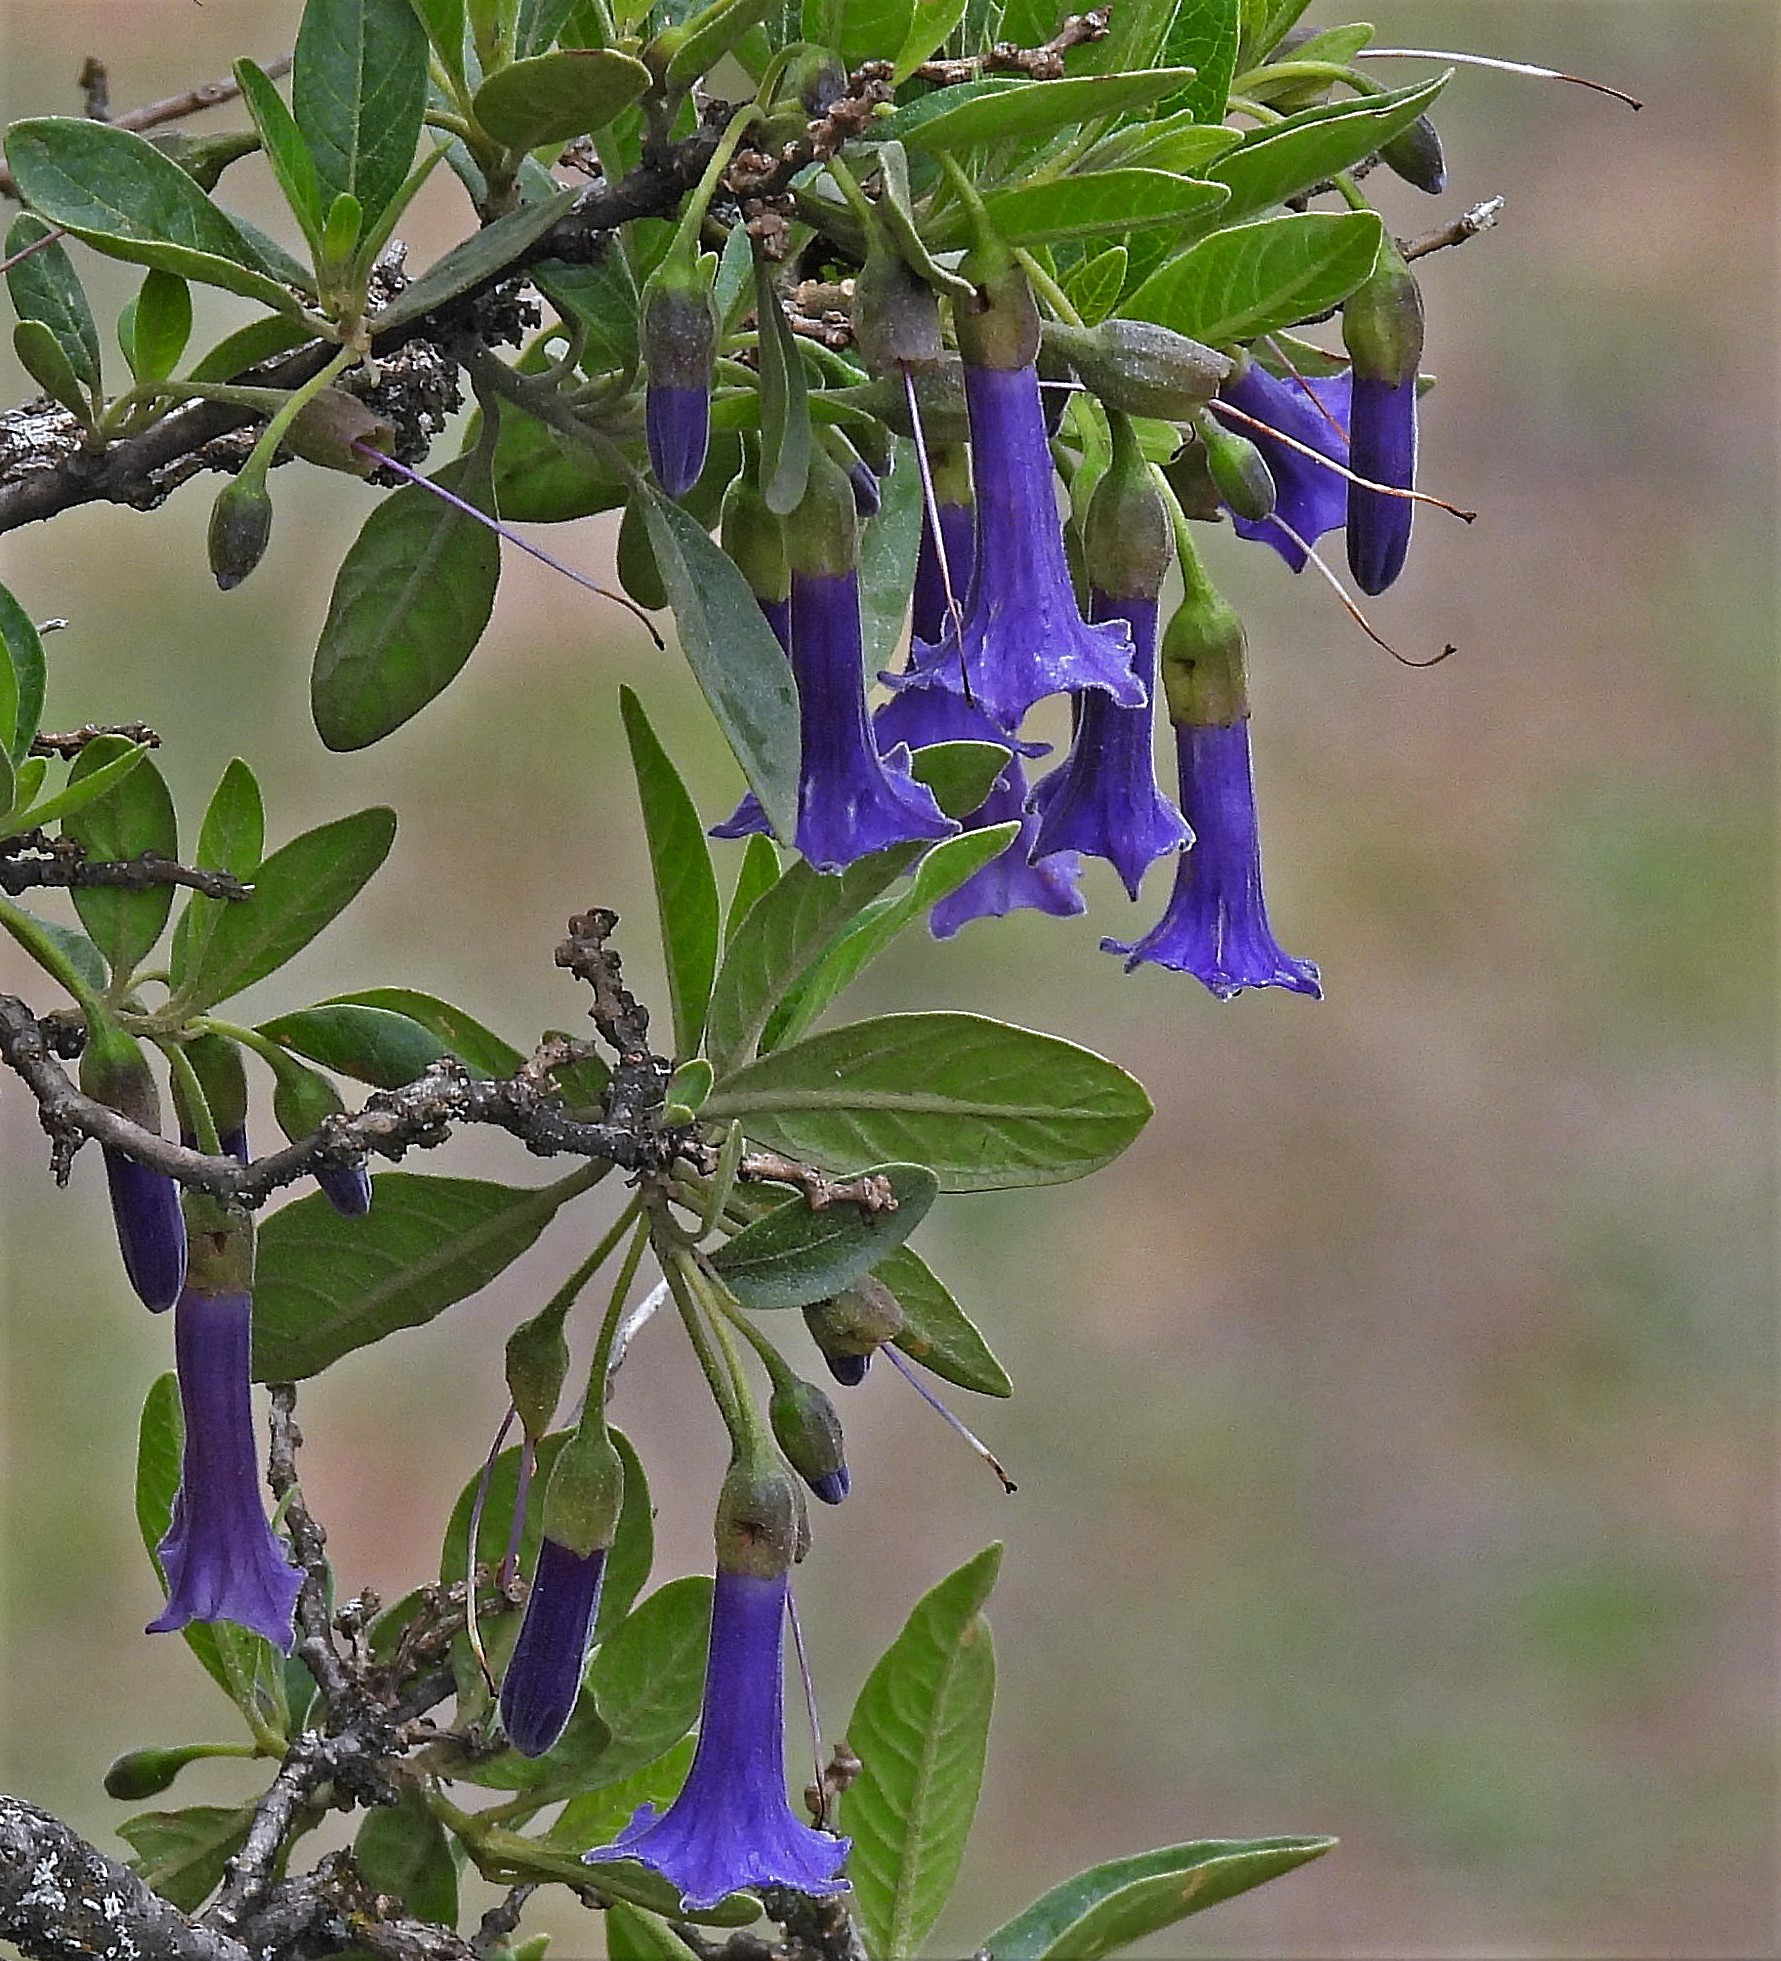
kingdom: Plantae
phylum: Tracheophyta
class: Magnoliopsida
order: Solanales
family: Solanaceae
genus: Eriolarynx
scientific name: Eriolarynx australis
